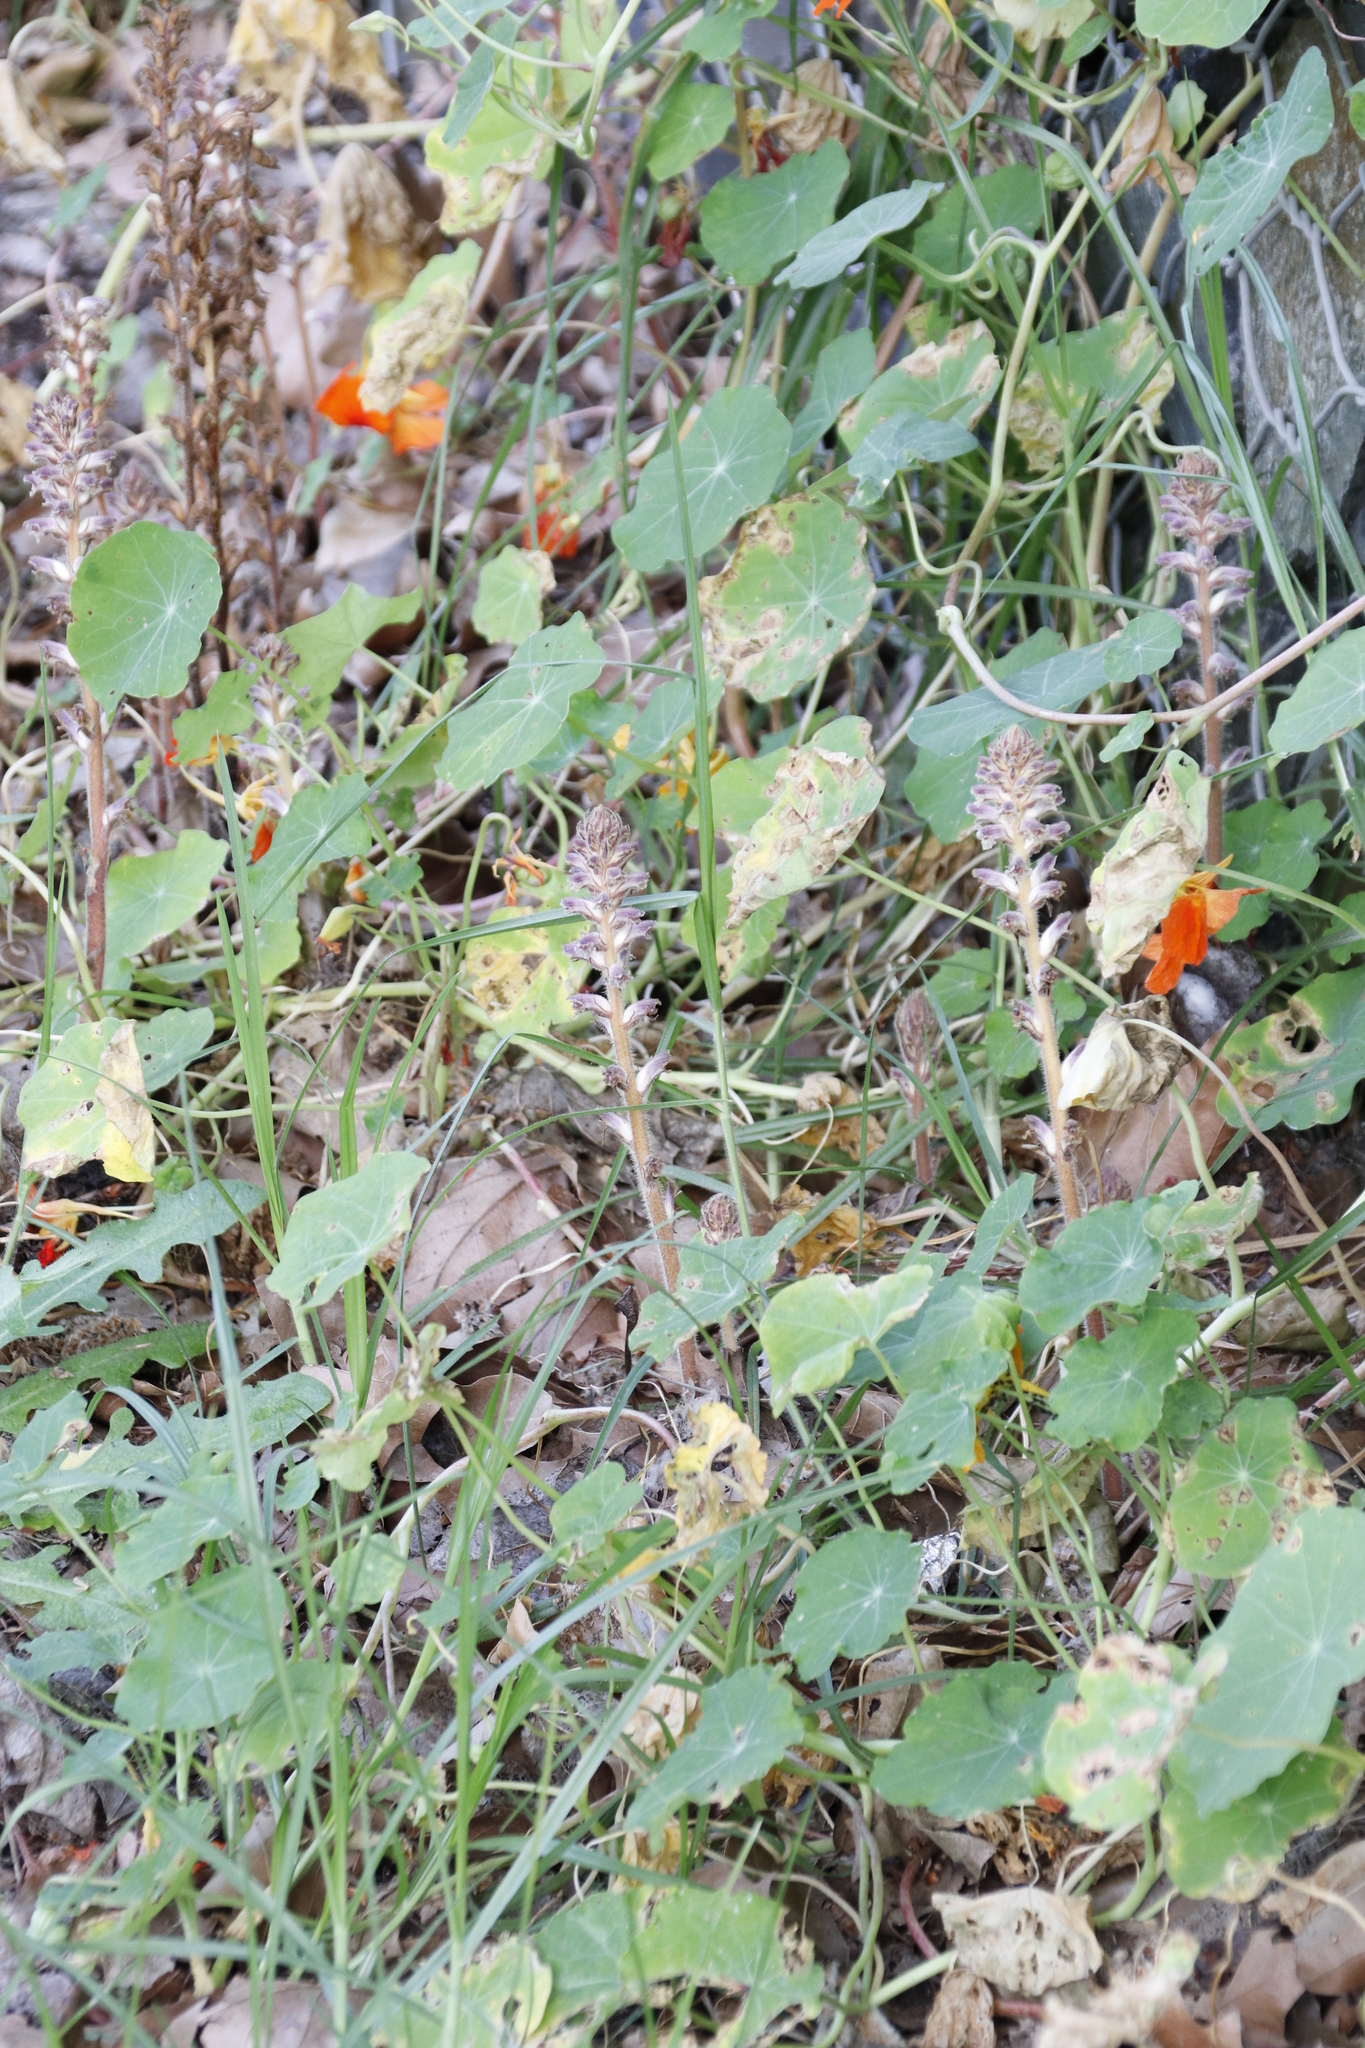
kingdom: Plantae
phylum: Tracheophyta
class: Magnoliopsida
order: Lamiales
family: Orobanchaceae
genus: Orobanche
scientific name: Orobanche minor
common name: Common broomrape
